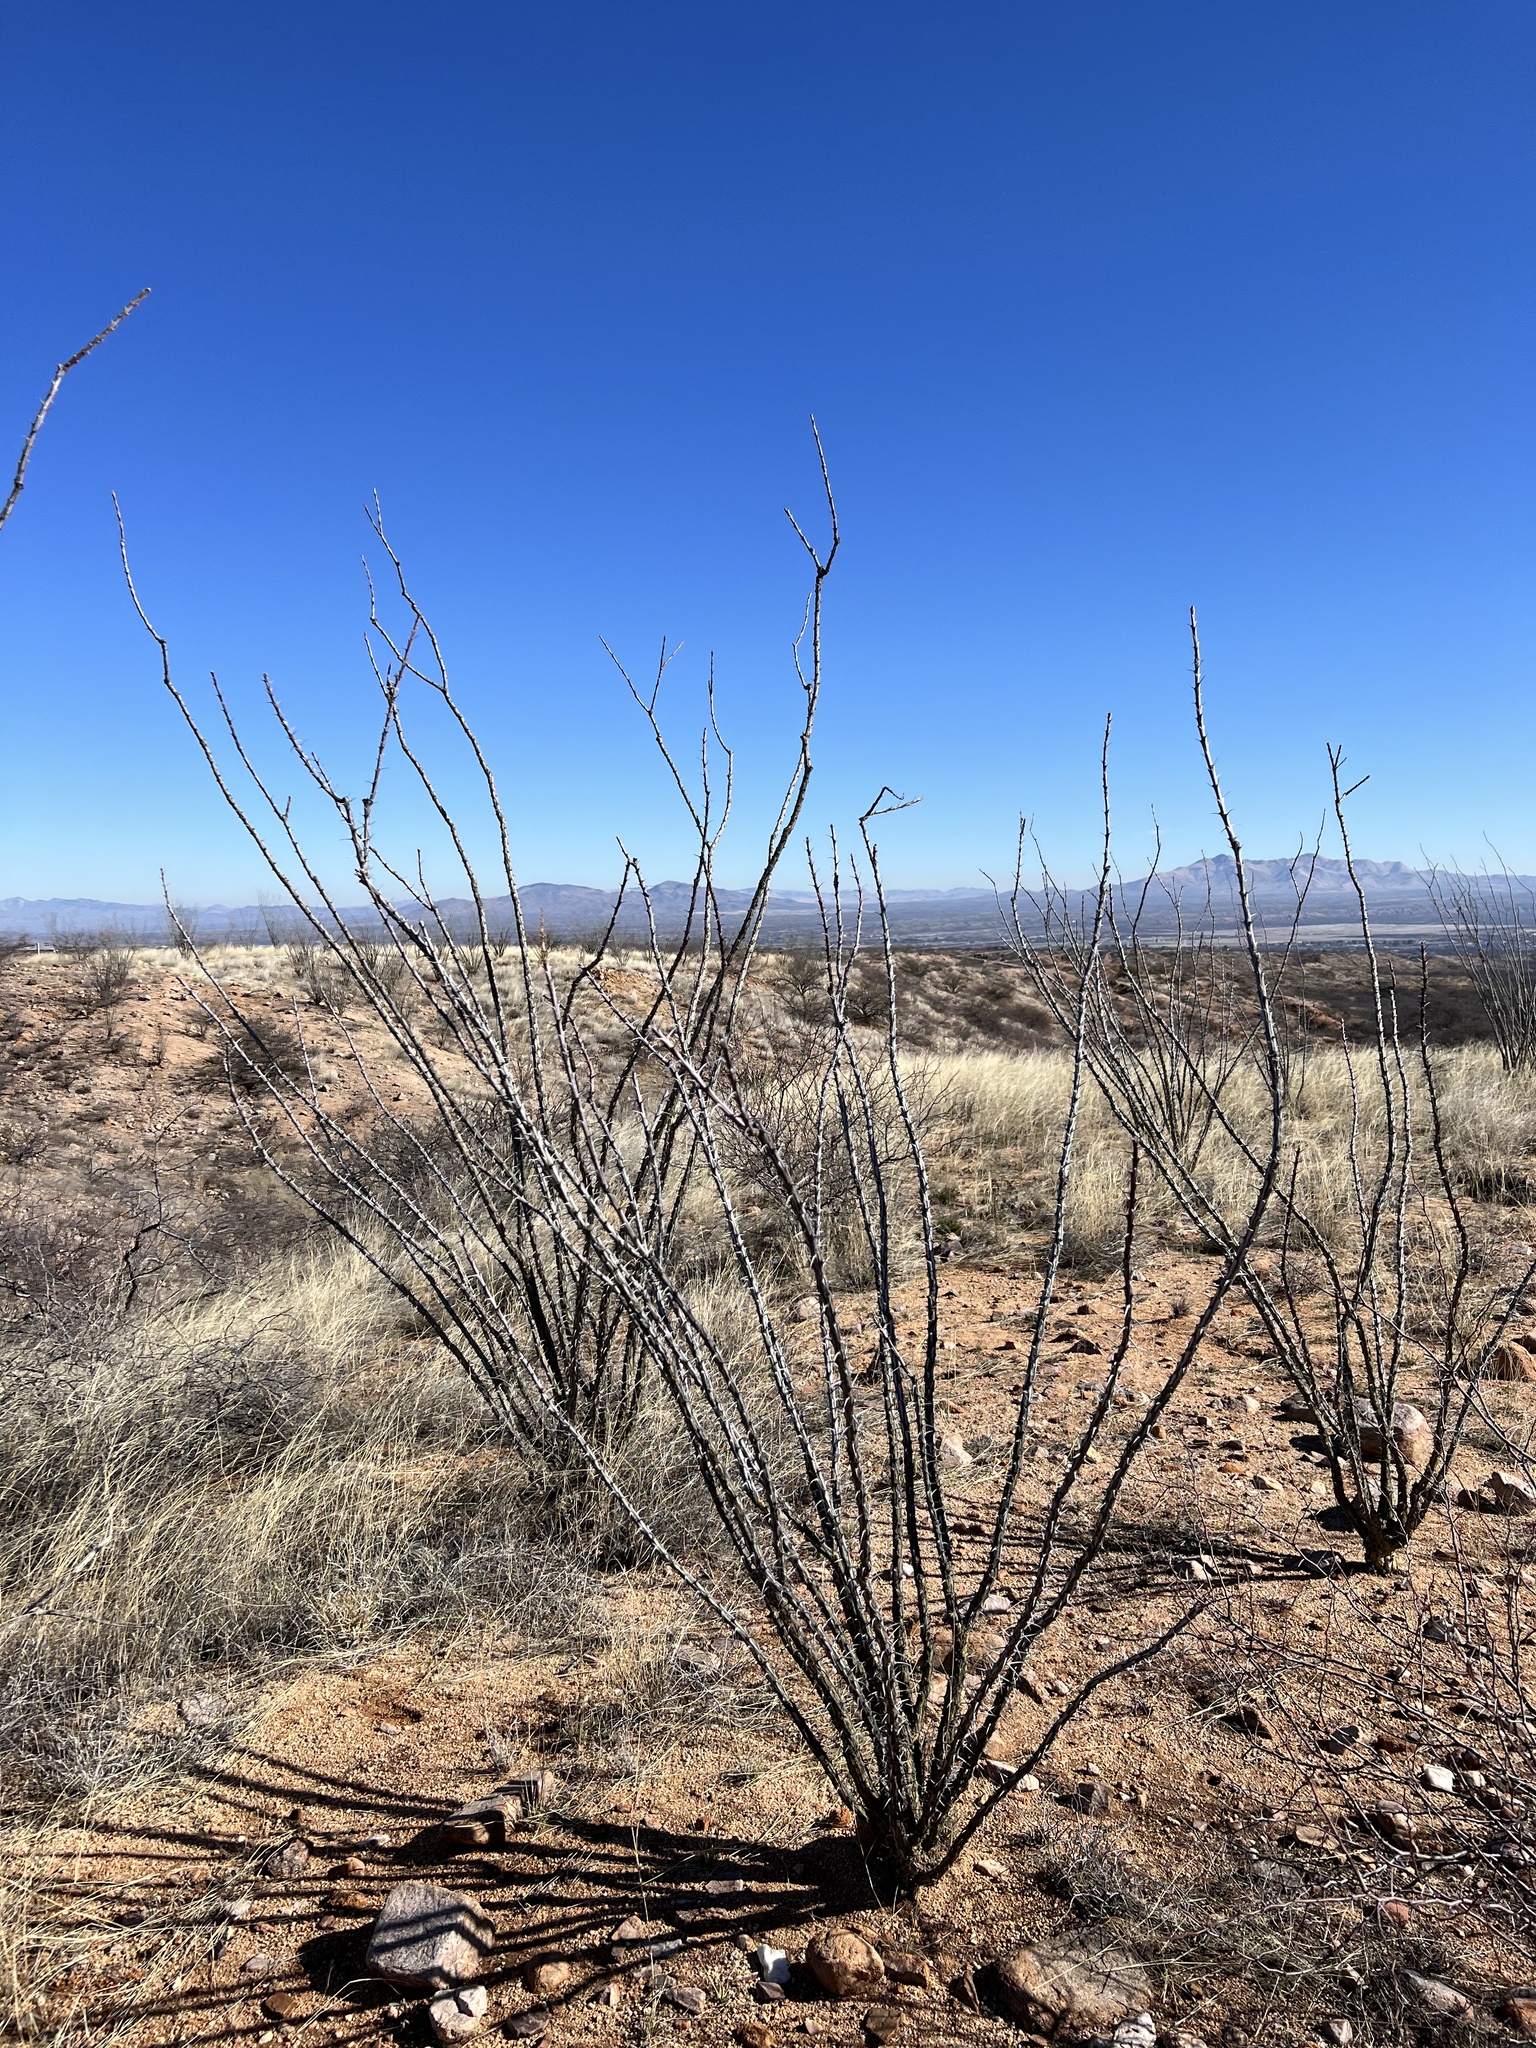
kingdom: Plantae
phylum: Tracheophyta
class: Magnoliopsida
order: Ericales
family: Fouquieriaceae
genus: Fouquieria
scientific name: Fouquieria splendens
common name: Vine-cactus
